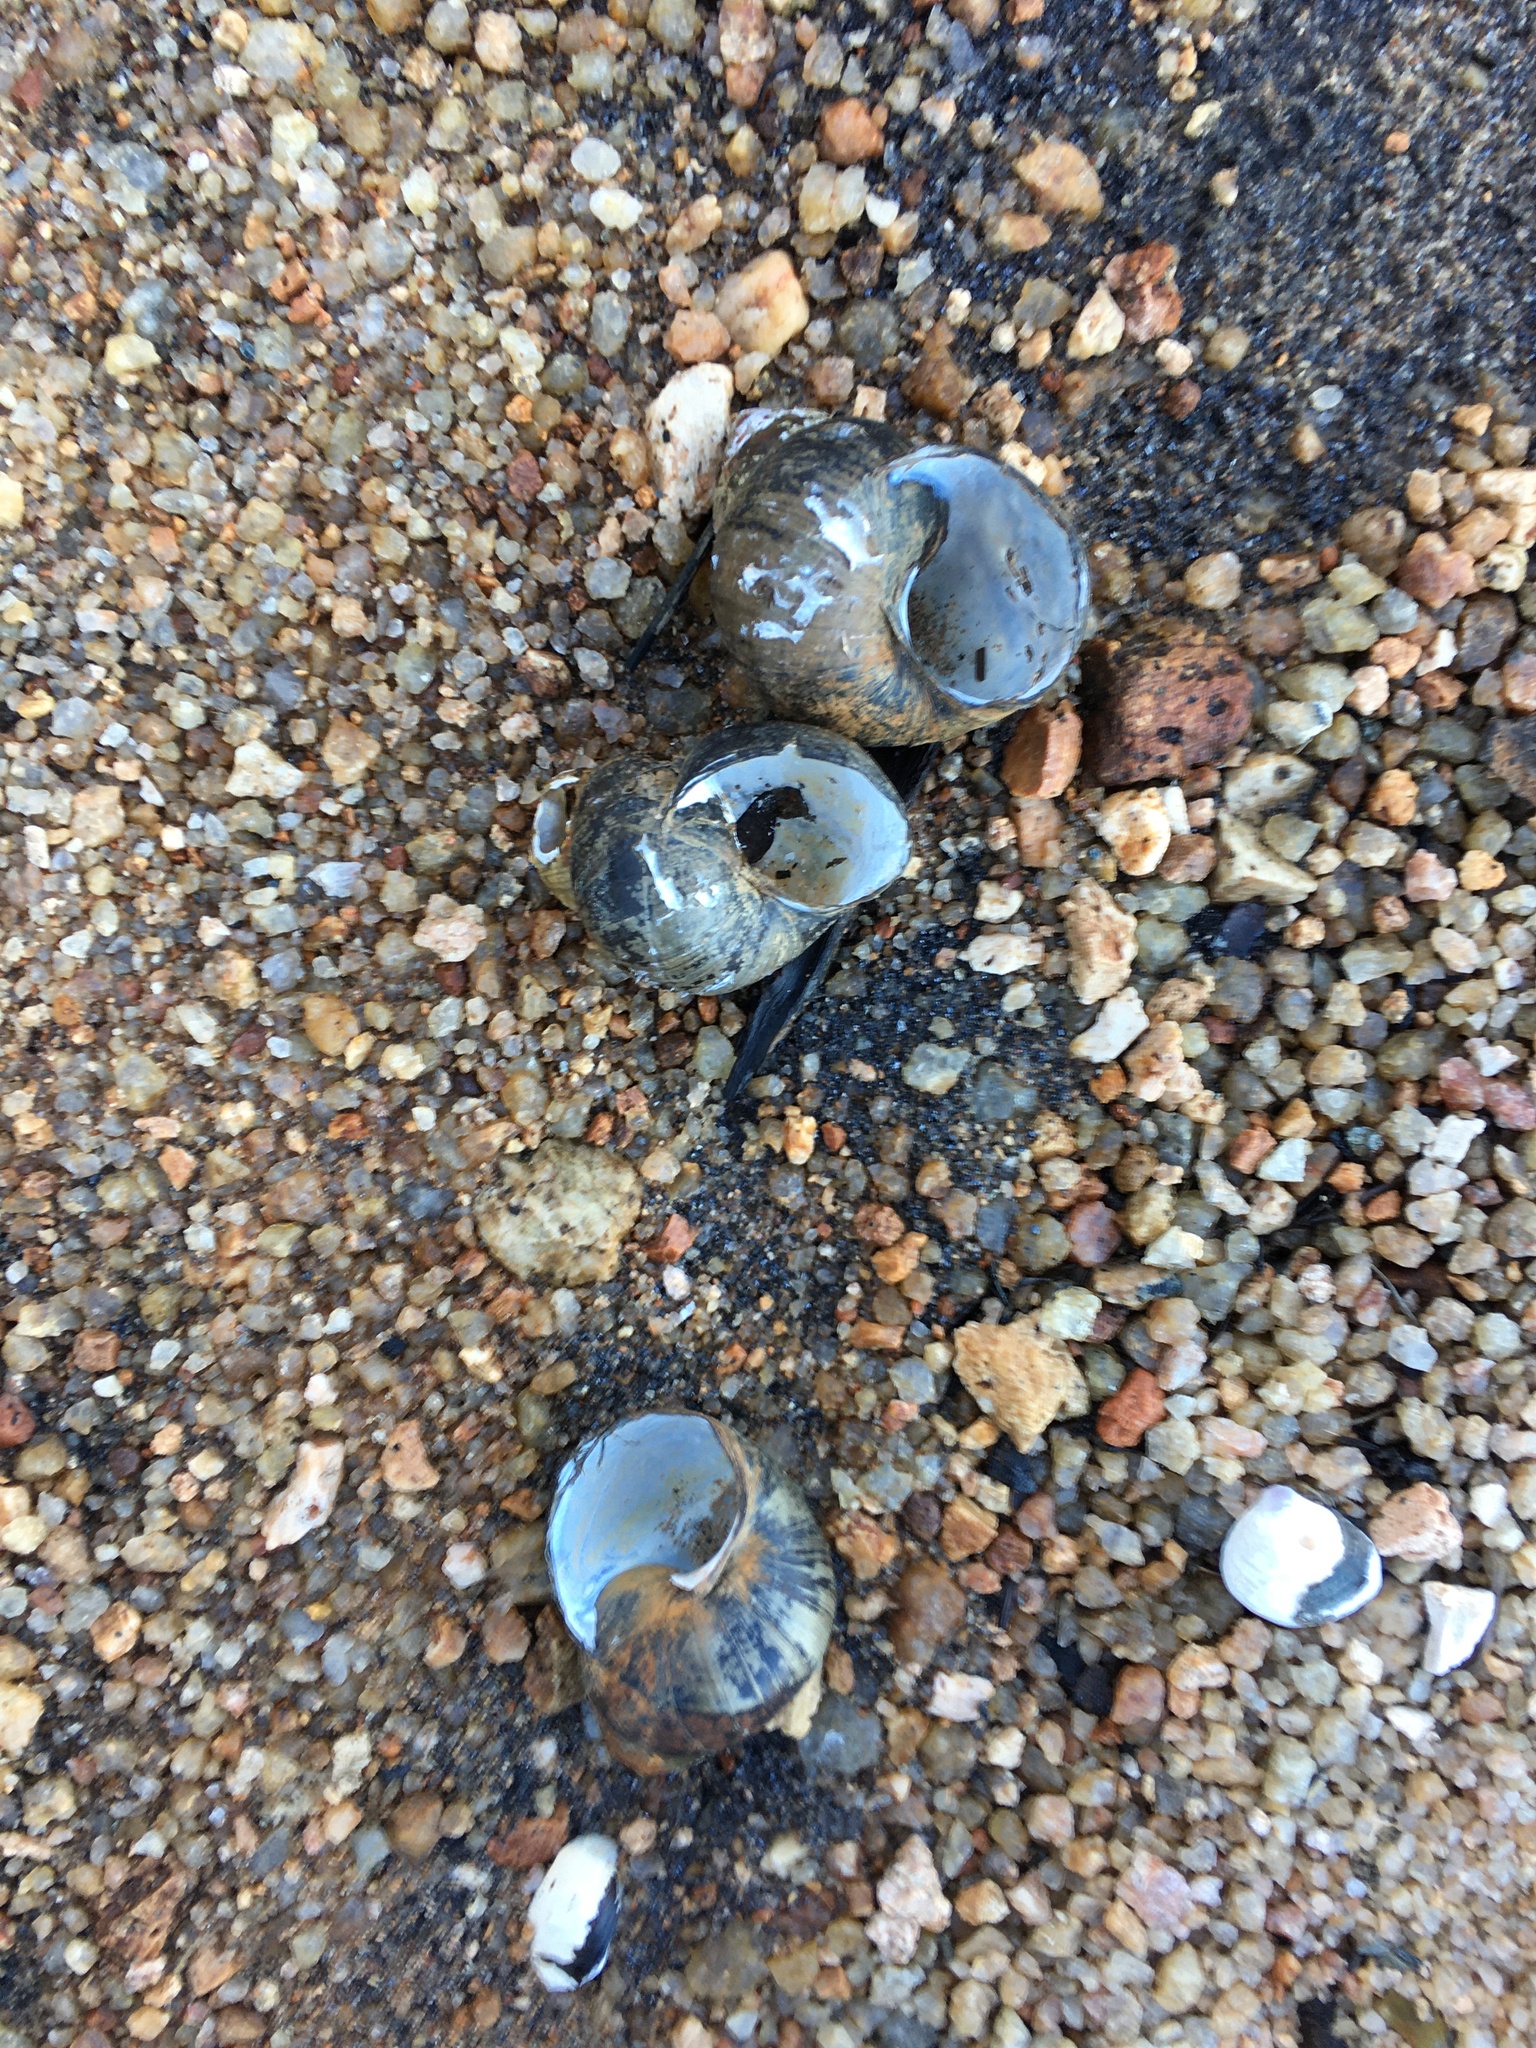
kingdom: Animalia
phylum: Mollusca
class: Gastropoda
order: Architaenioglossa
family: Viviparidae
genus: Cipangopaludina
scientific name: Cipangopaludina chinensis
